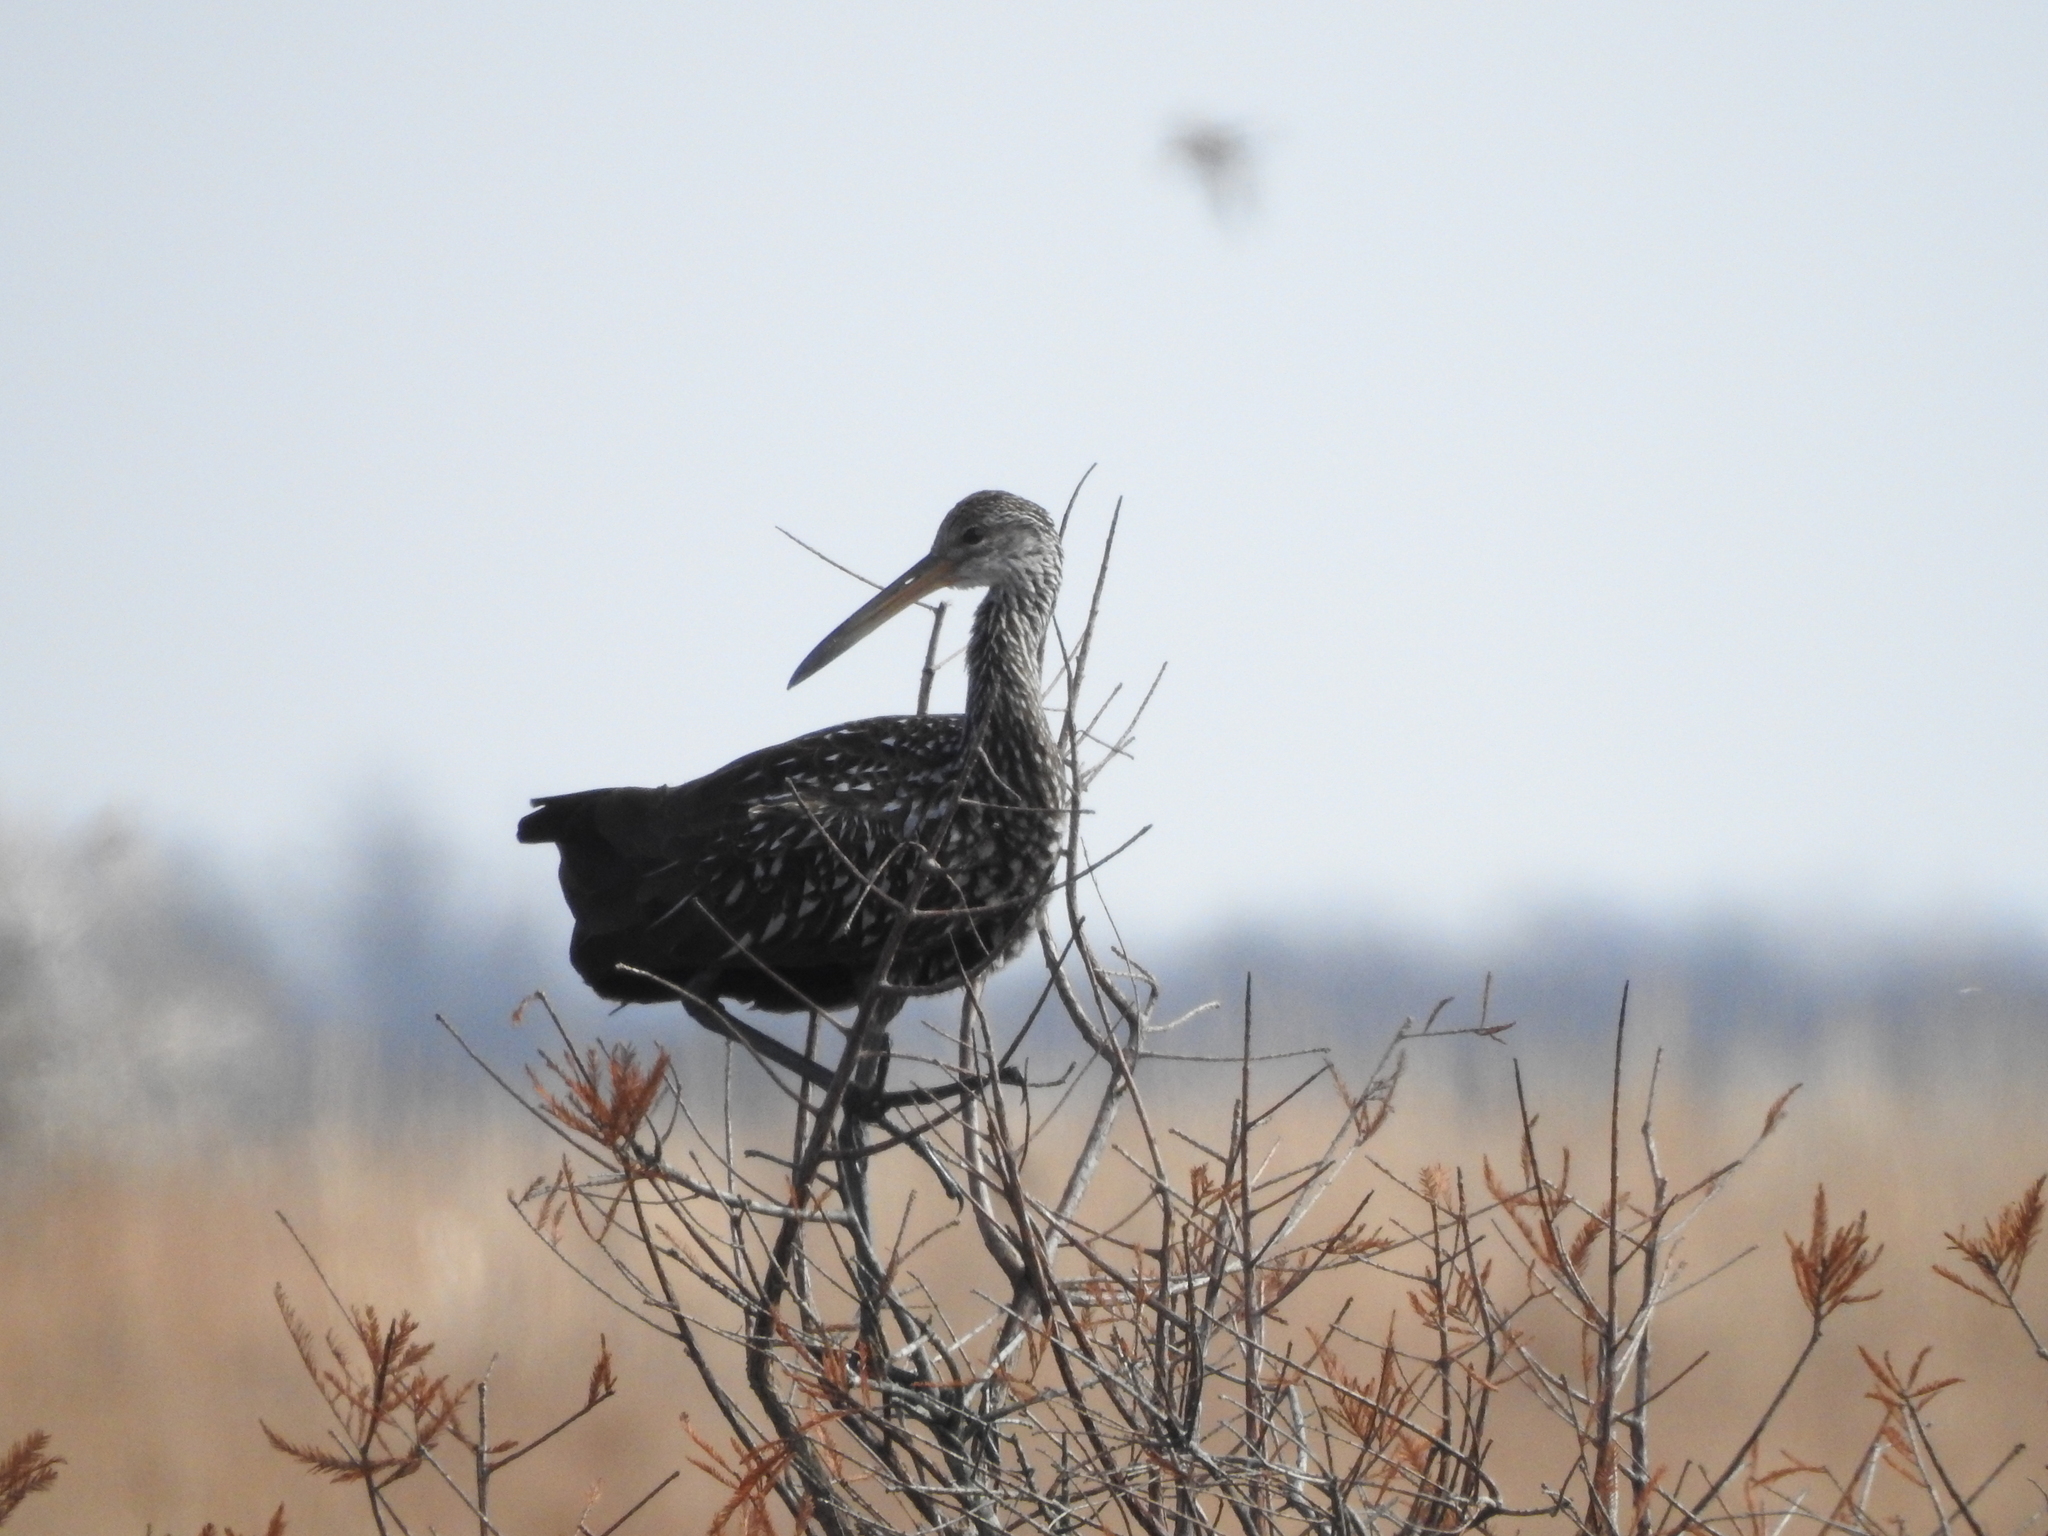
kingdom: Animalia
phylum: Chordata
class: Aves
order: Gruiformes
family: Aramidae
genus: Aramus
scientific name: Aramus guarauna
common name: Limpkin
